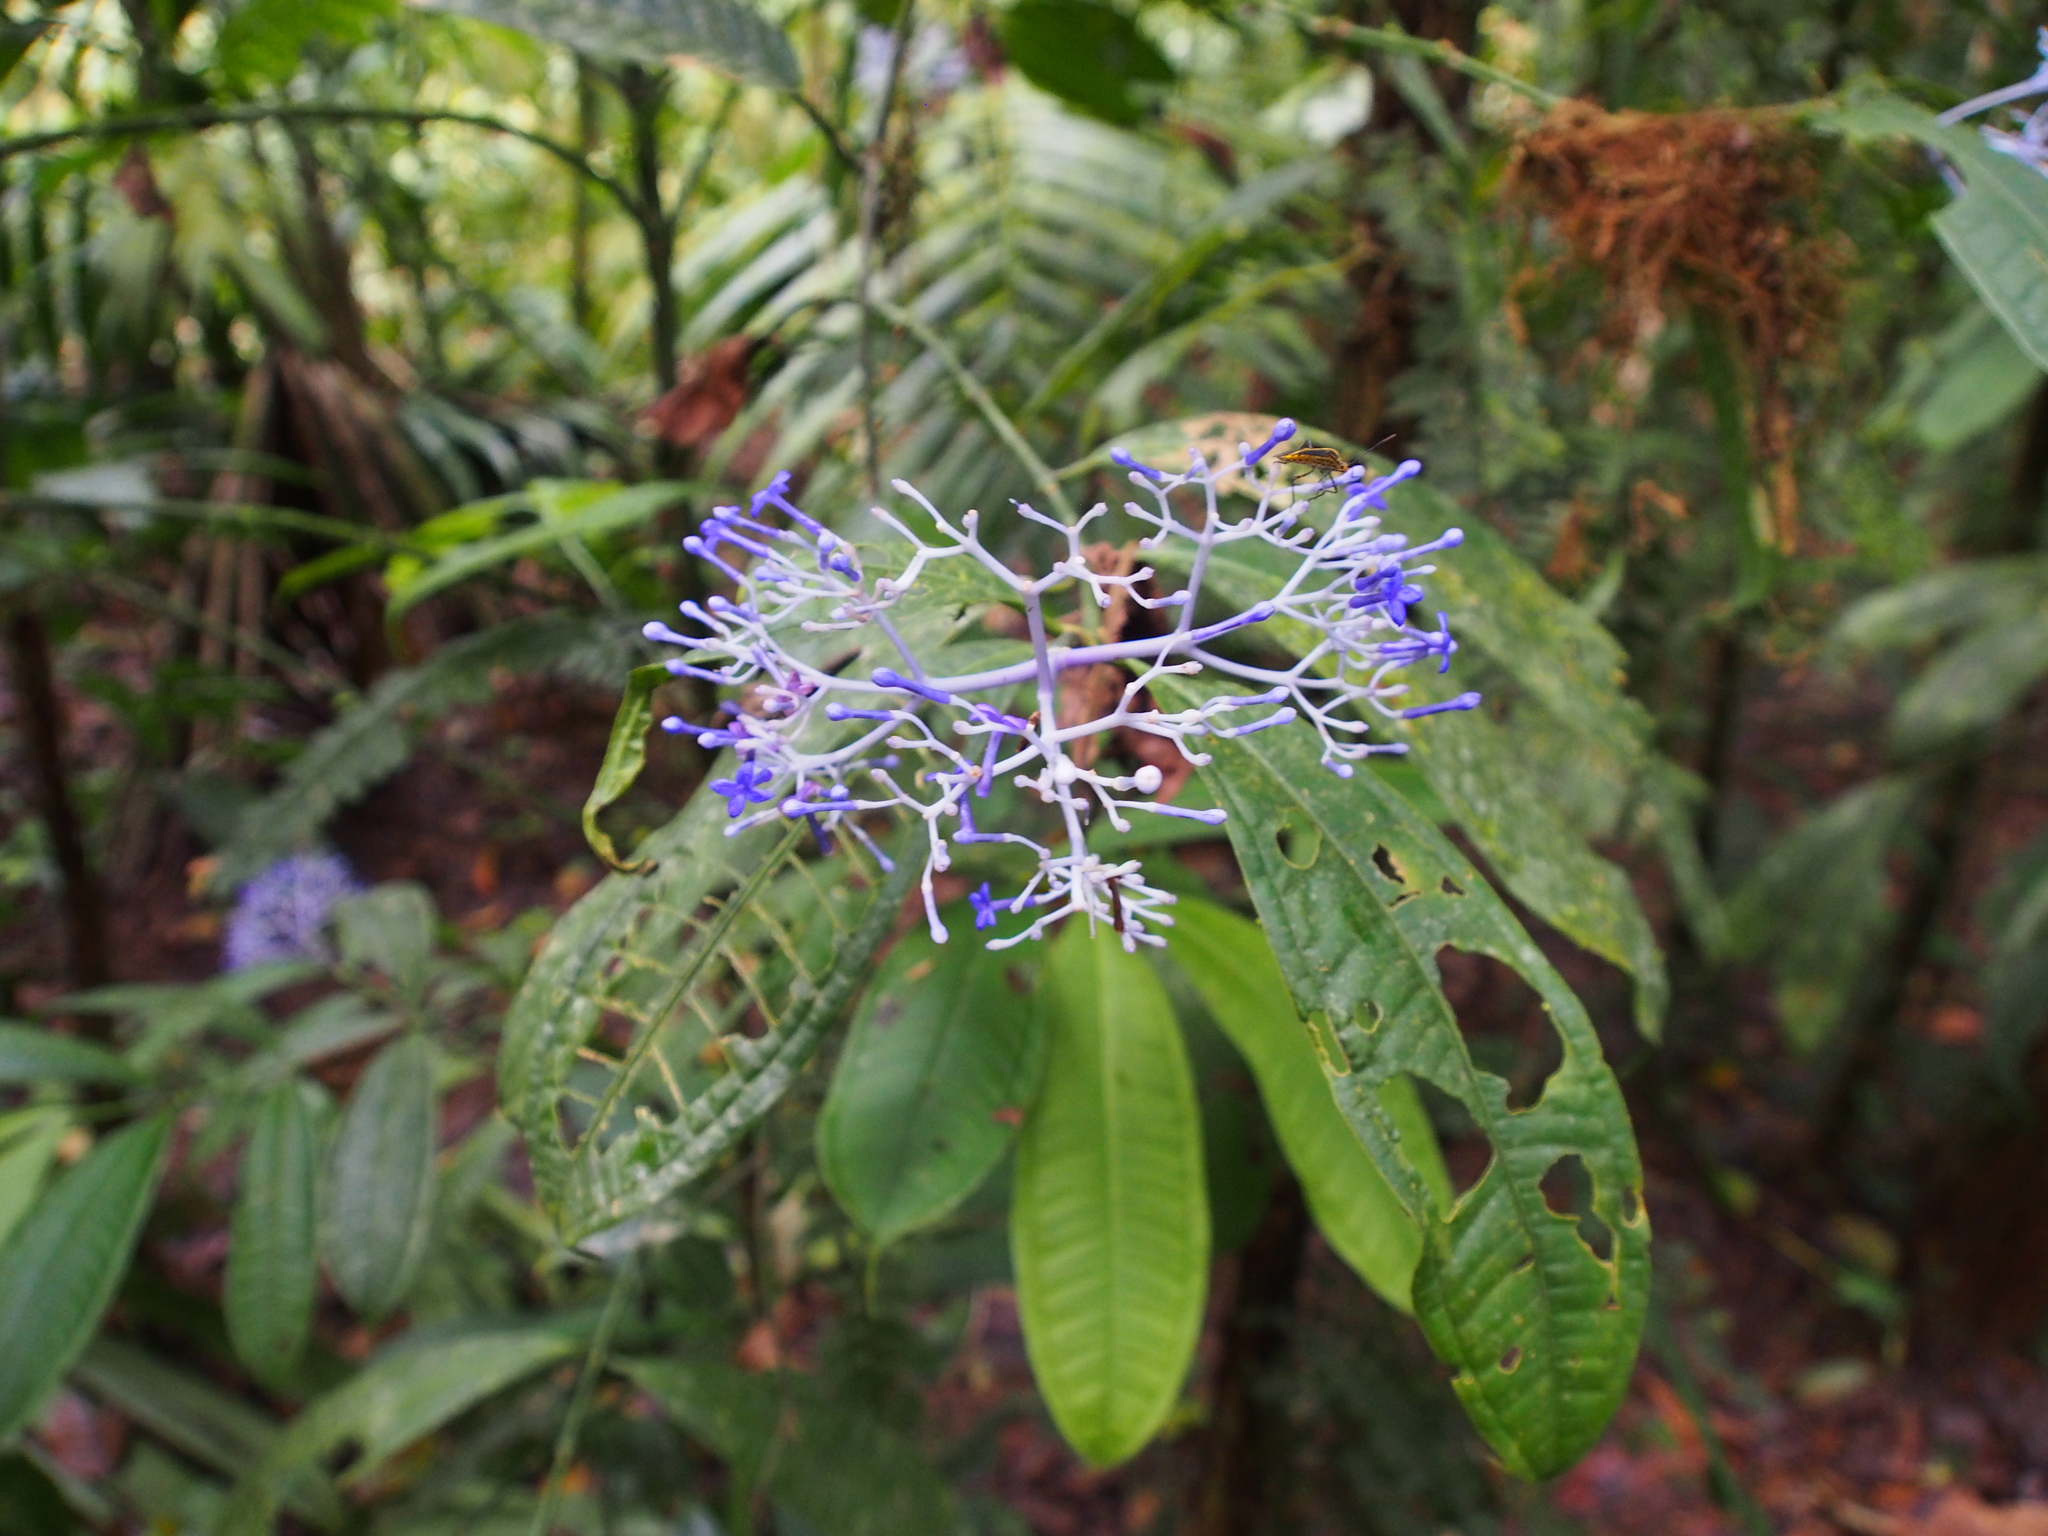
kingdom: Plantae
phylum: Tracheophyta
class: Magnoliopsida
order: Gentianales
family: Rubiaceae
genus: Faramea
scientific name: Faramea suerrensis
